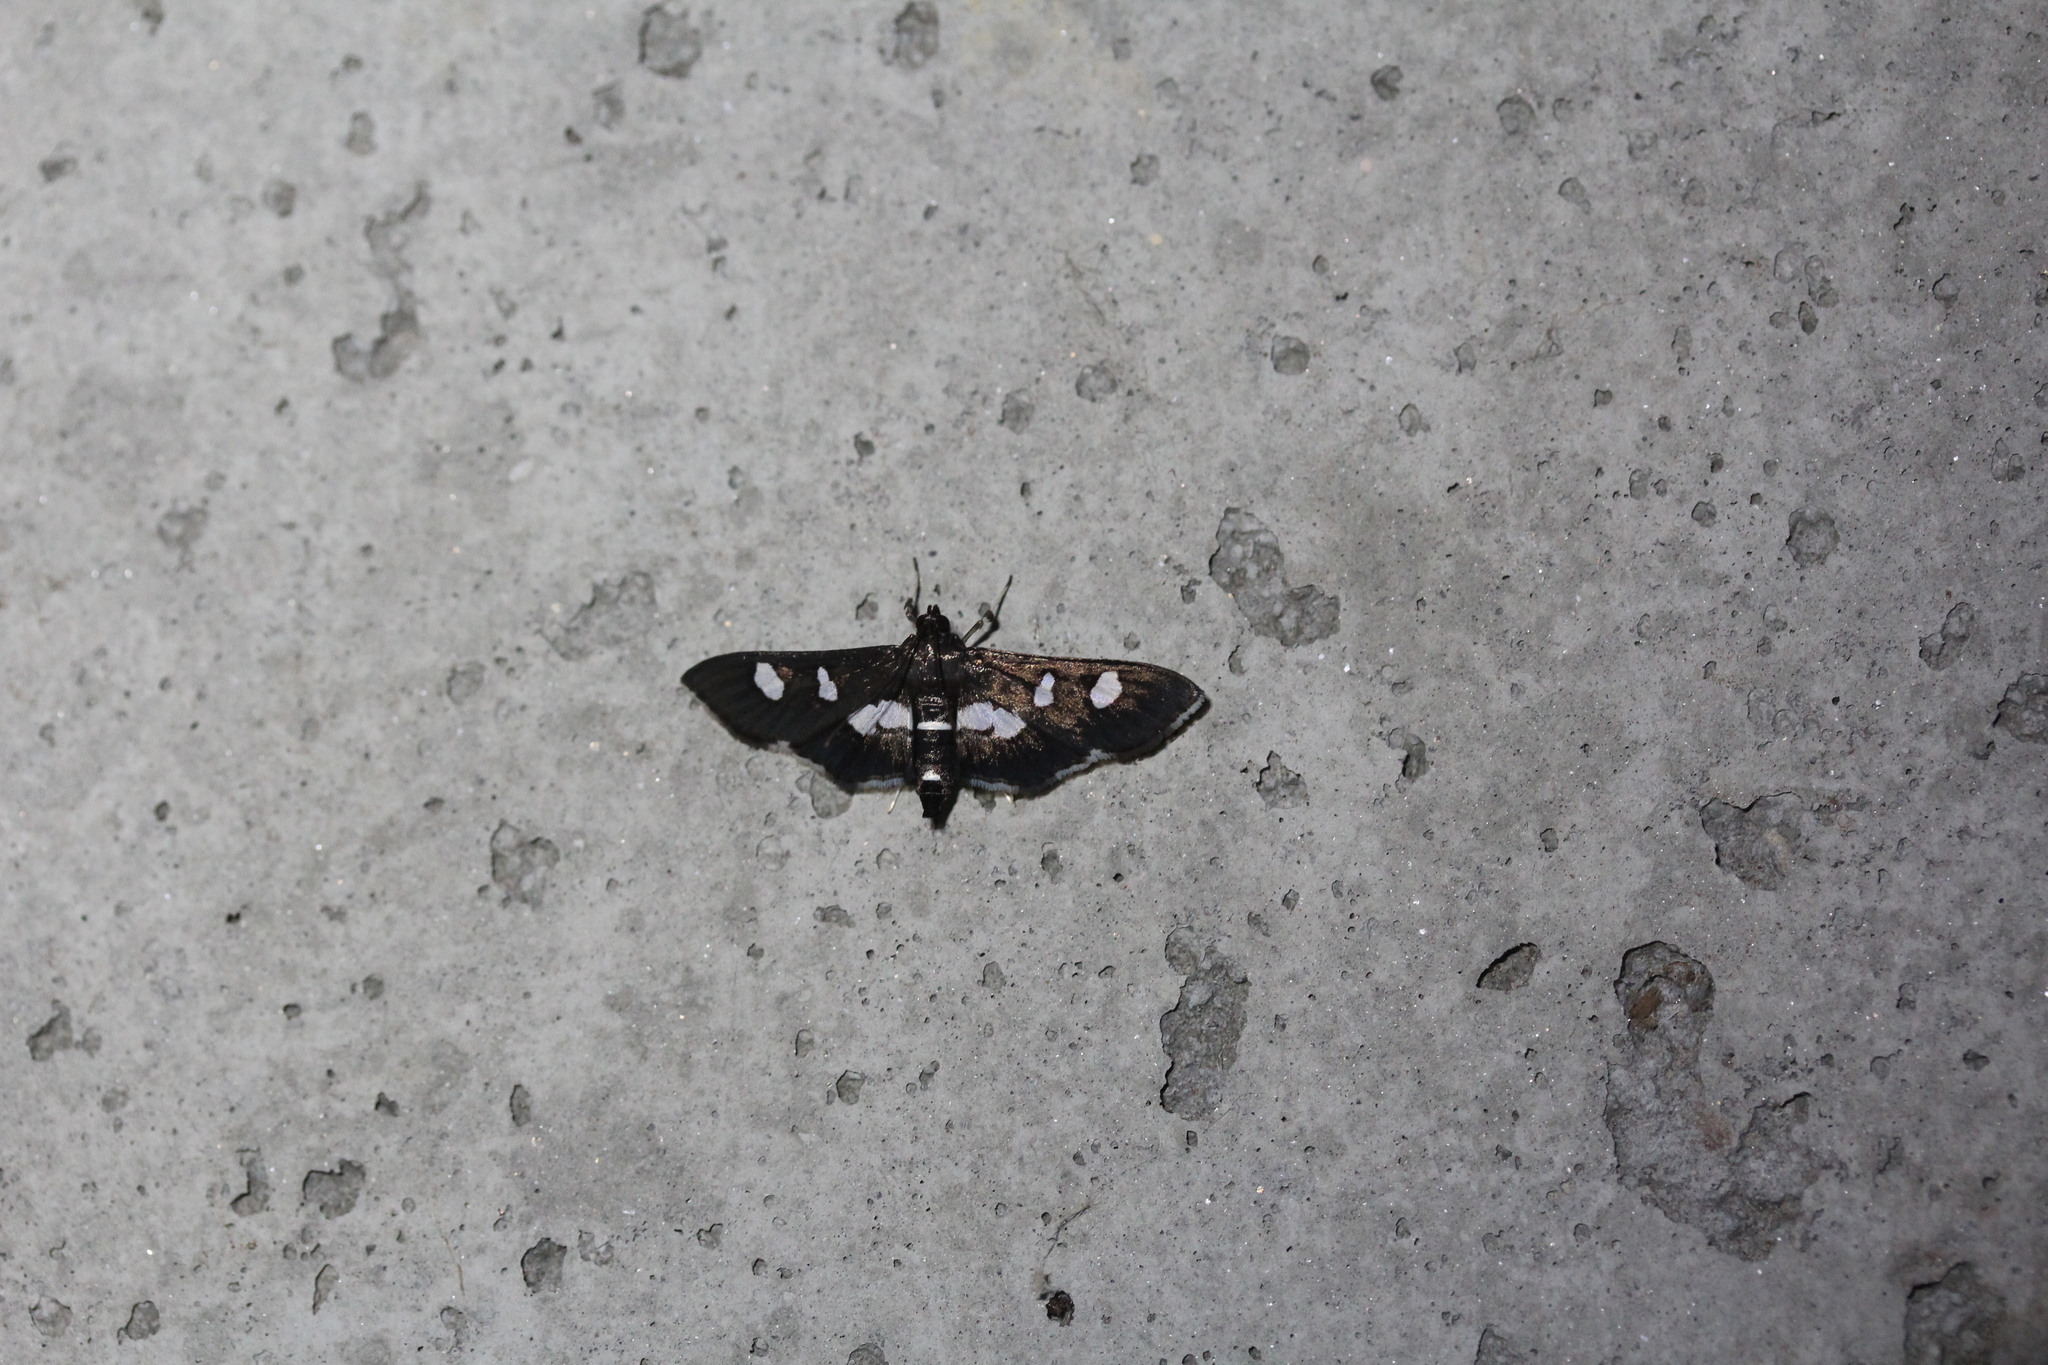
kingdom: Animalia
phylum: Arthropoda
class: Insecta
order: Lepidoptera
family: Crambidae
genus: Desmia
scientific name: Desmia
